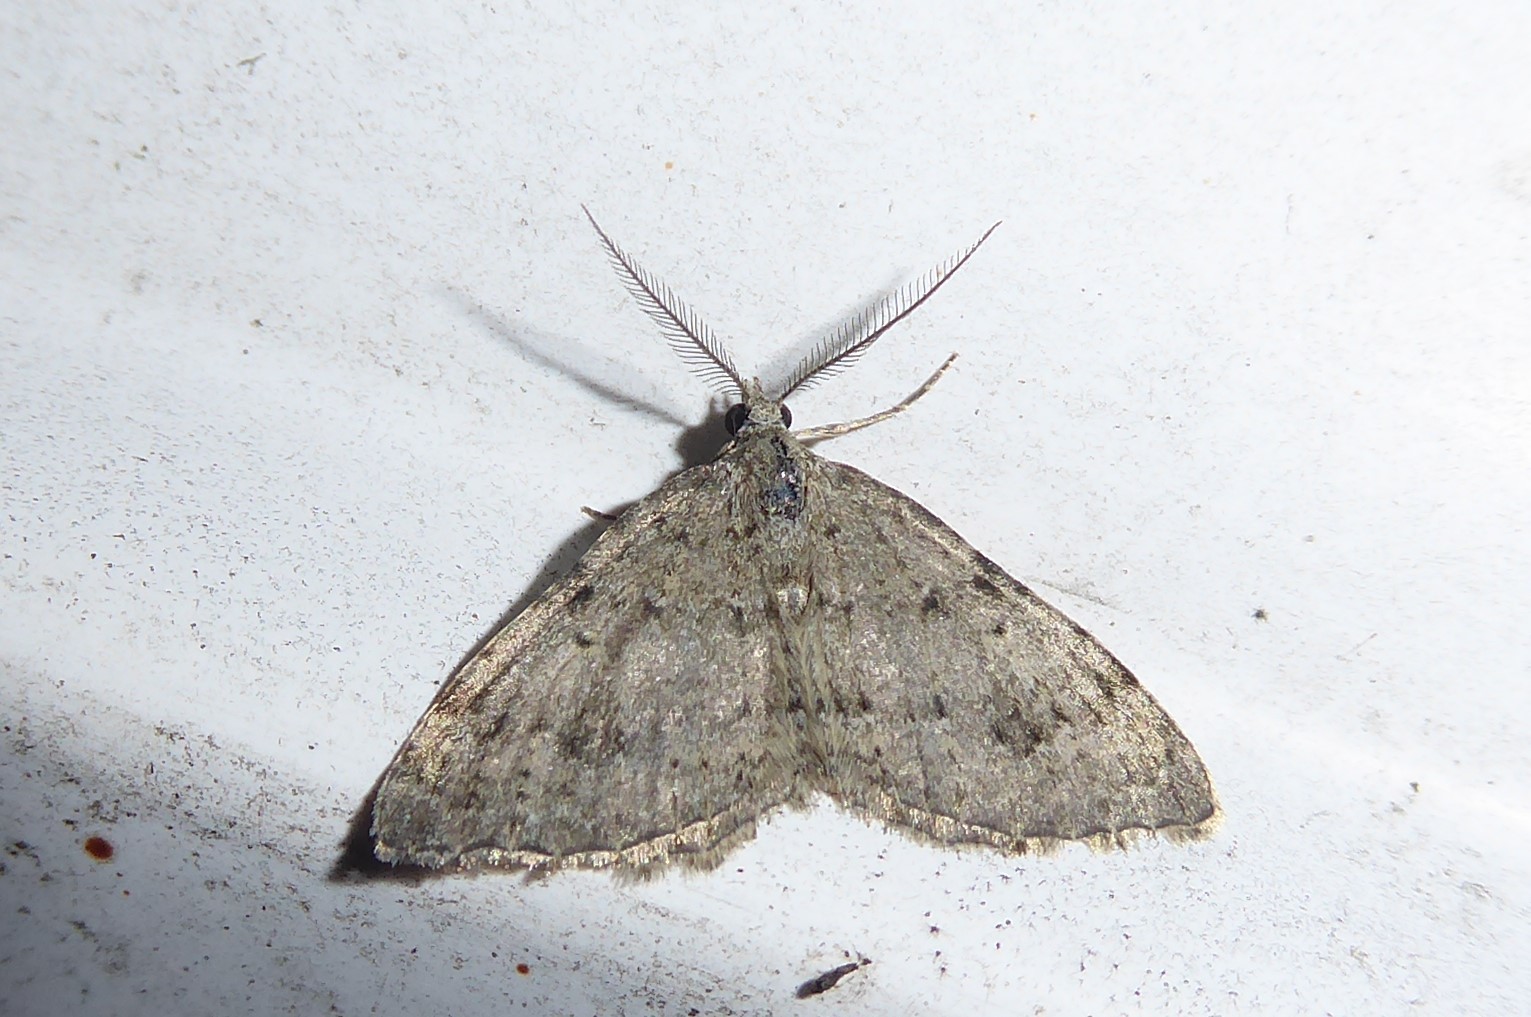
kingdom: Animalia
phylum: Arthropoda
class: Insecta
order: Lepidoptera
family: Geometridae
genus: Helastia
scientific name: Helastia corcularia
